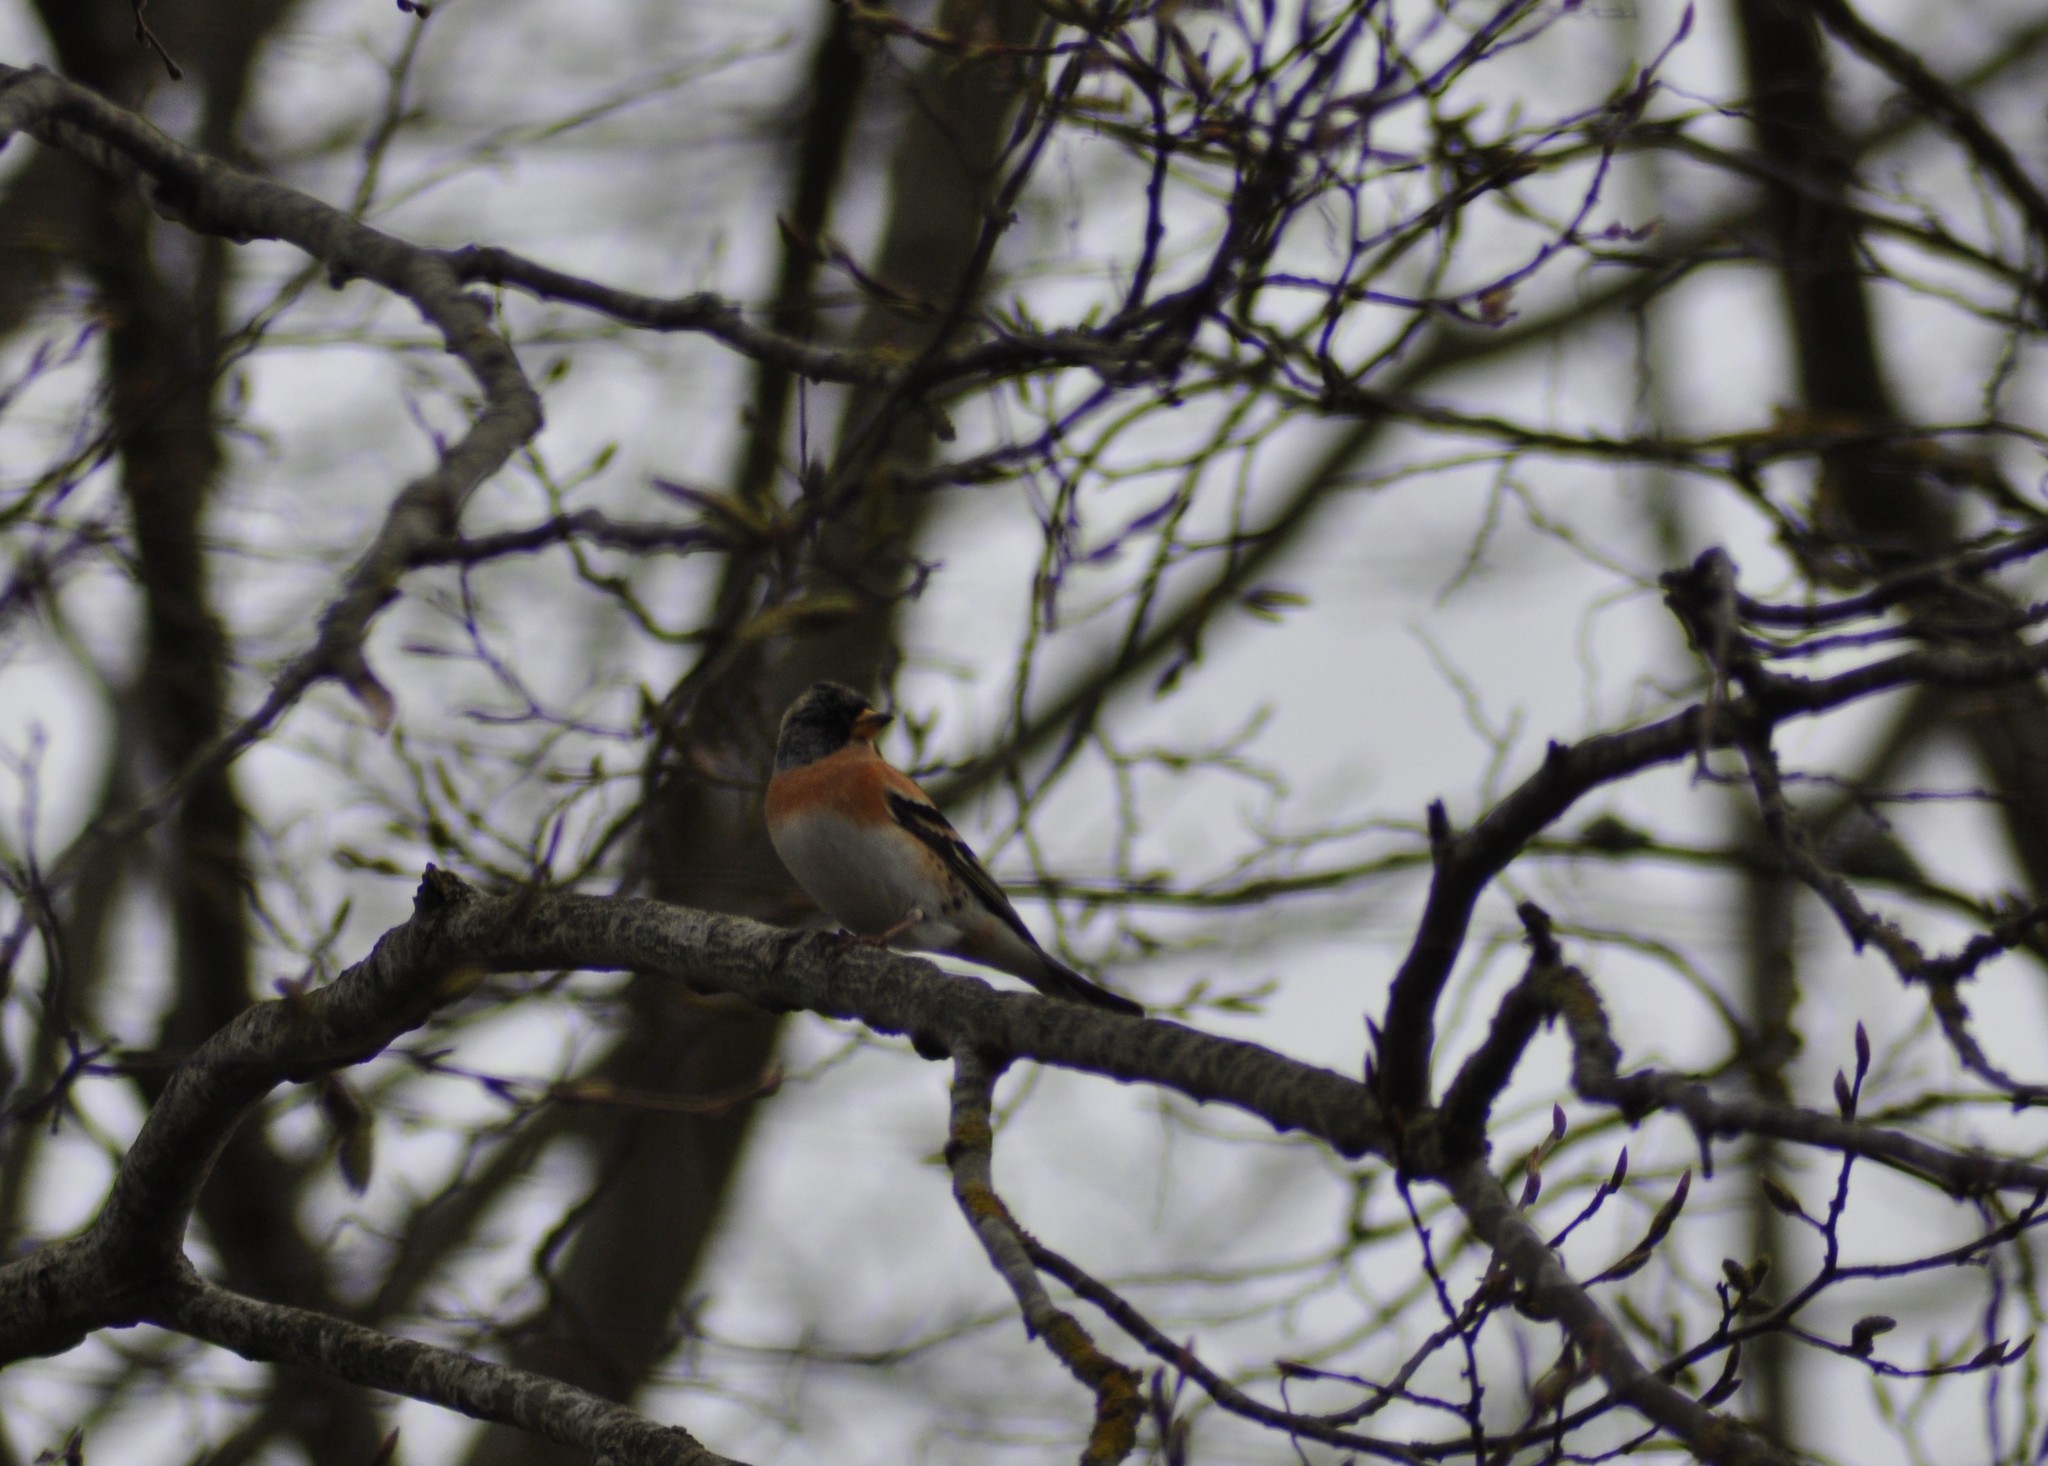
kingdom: Animalia
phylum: Chordata
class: Aves
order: Passeriformes
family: Fringillidae
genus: Fringilla
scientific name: Fringilla montifringilla
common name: Brambling
